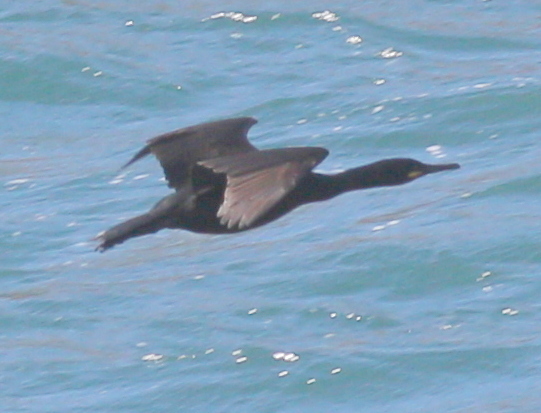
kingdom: Animalia
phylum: Chordata
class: Aves
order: Suliformes
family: Phalacrocoracidae
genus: Phalacrocorax
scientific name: Phalacrocorax aristotelis
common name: European shag
